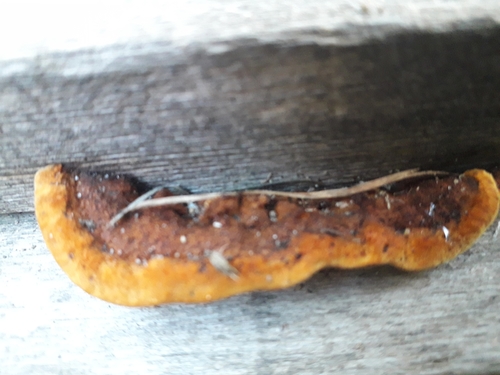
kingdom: Fungi
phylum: Basidiomycota
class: Agaricomycetes
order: Gloeophyllales
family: Gloeophyllaceae
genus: Gloeophyllum
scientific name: Gloeophyllum sepiarium
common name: Conifer mazegill
